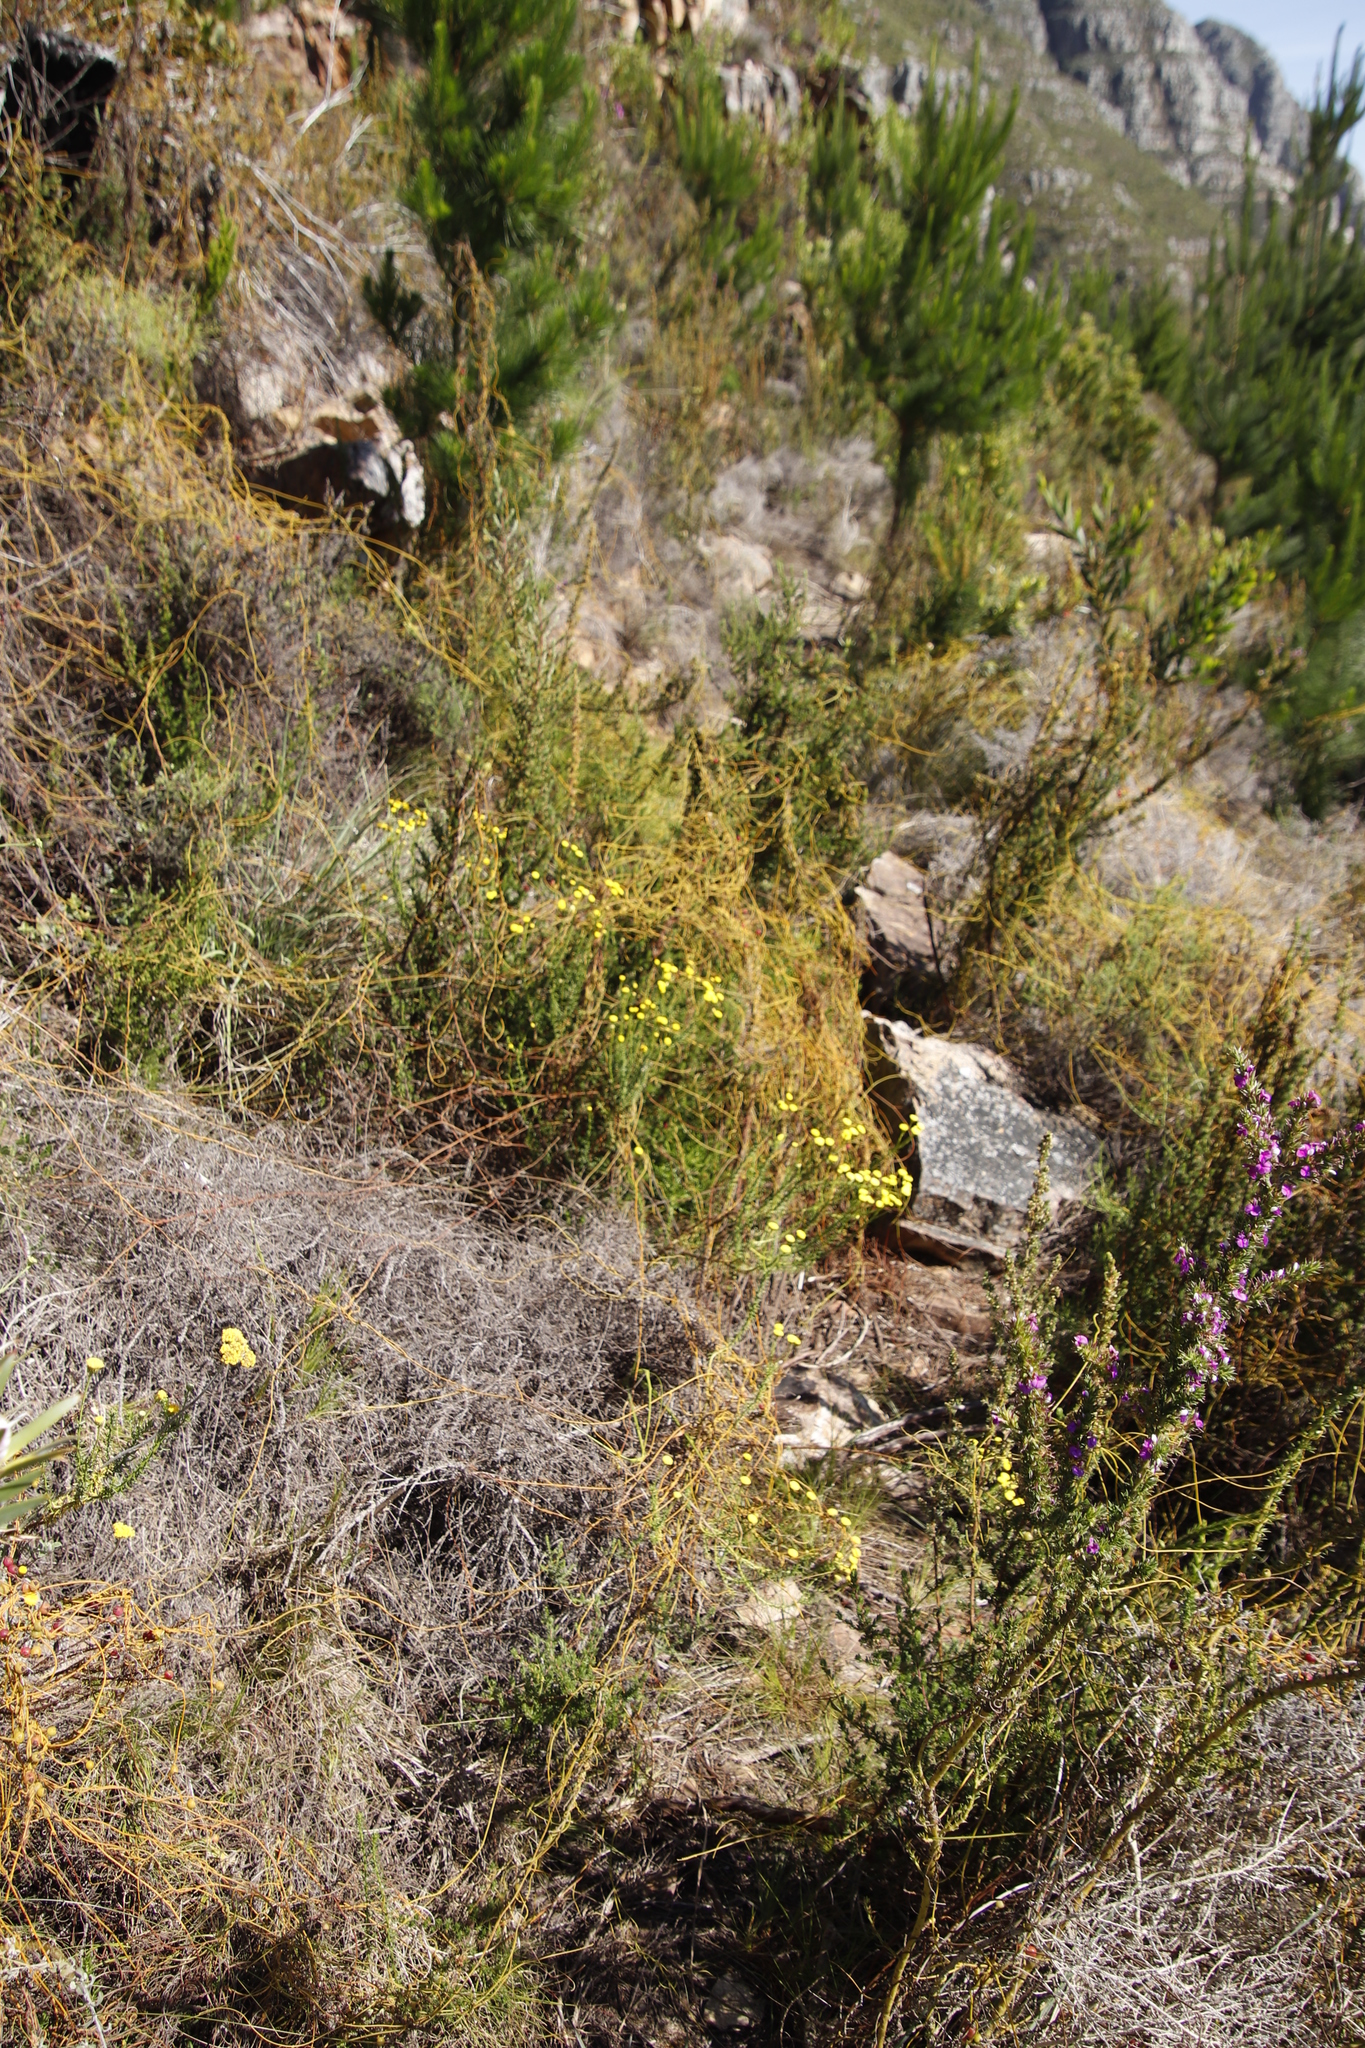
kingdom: Plantae
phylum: Tracheophyta
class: Magnoliopsida
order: Laurales
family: Lauraceae
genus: Cassytha
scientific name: Cassytha ciliolata
